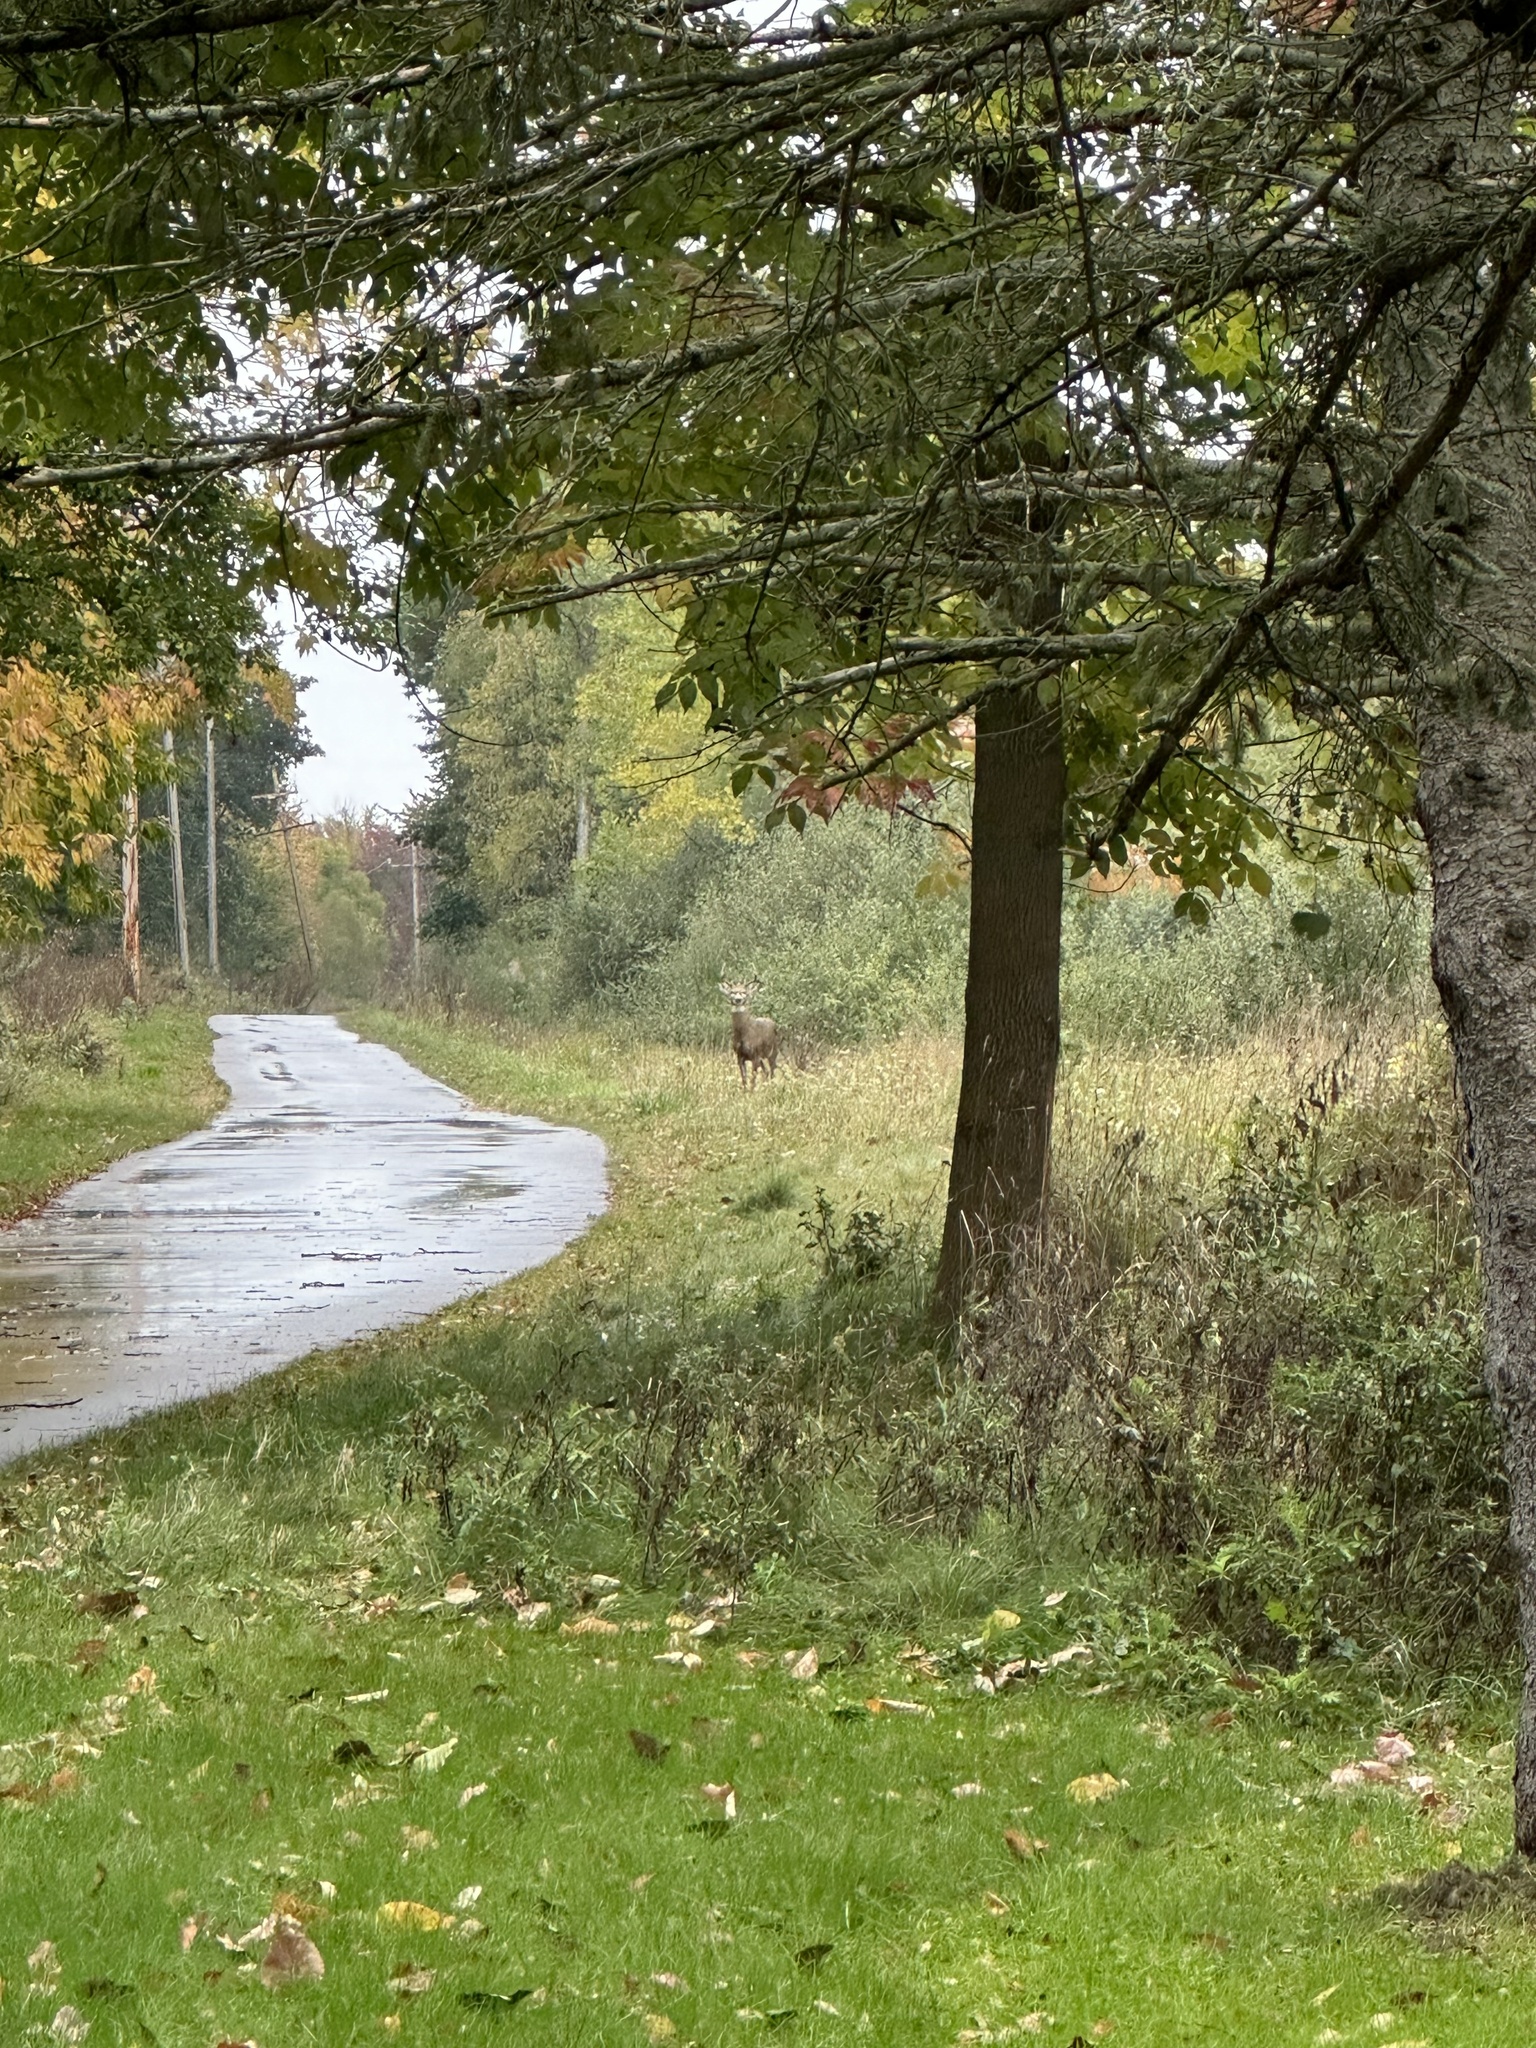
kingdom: Animalia
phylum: Chordata
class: Mammalia
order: Artiodactyla
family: Cervidae
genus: Odocoileus
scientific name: Odocoileus virginianus
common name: White-tailed deer
